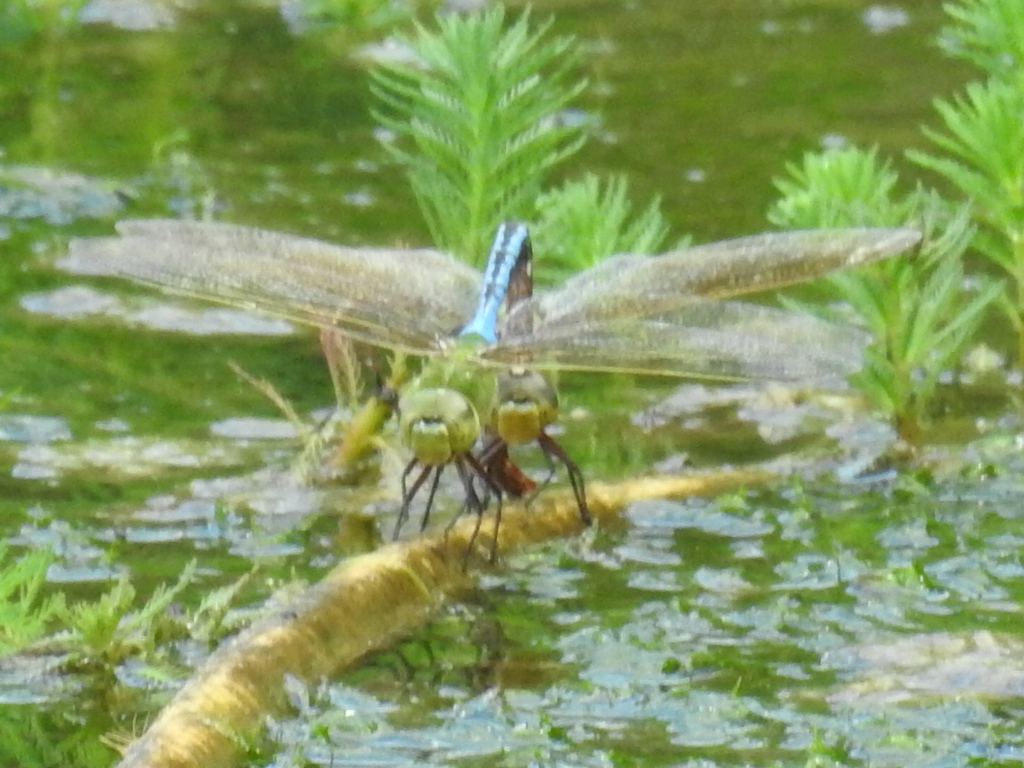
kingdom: Animalia
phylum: Arthropoda
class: Insecta
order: Odonata
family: Aeshnidae
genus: Anax
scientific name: Anax junius
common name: Common green darner
